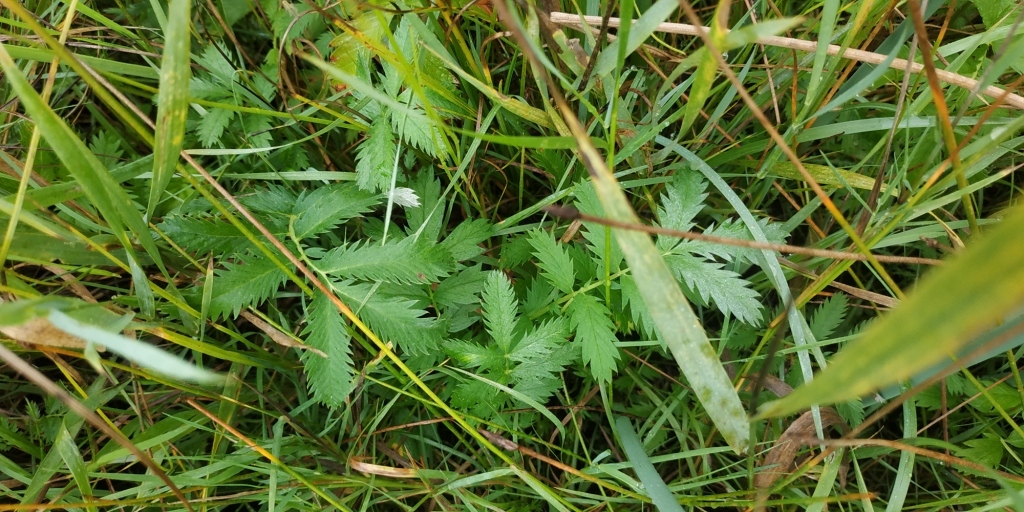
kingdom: Plantae
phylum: Tracheophyta
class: Magnoliopsida
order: Rosales
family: Rosaceae
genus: Argentina
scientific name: Argentina anserina
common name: Common silverweed
